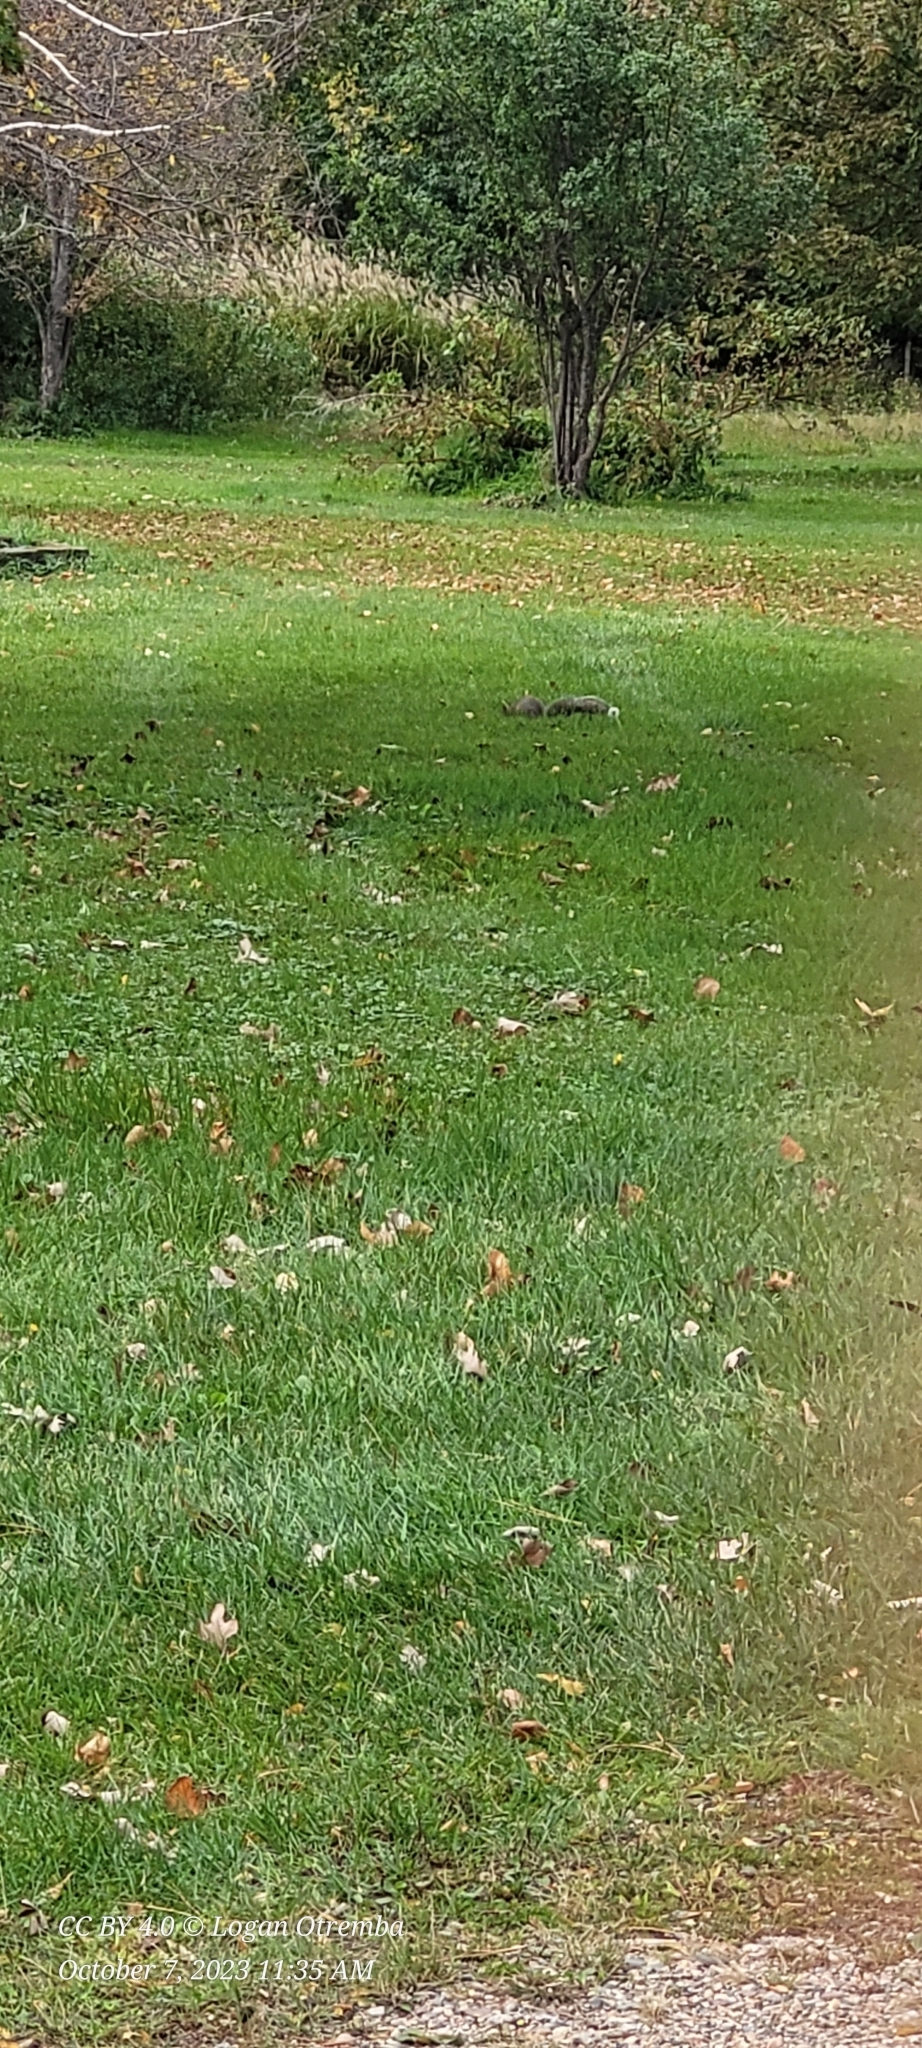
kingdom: Animalia
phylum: Chordata
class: Mammalia
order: Rodentia
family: Sciuridae
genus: Sciurus
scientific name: Sciurus carolinensis
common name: Eastern gray squirrel
